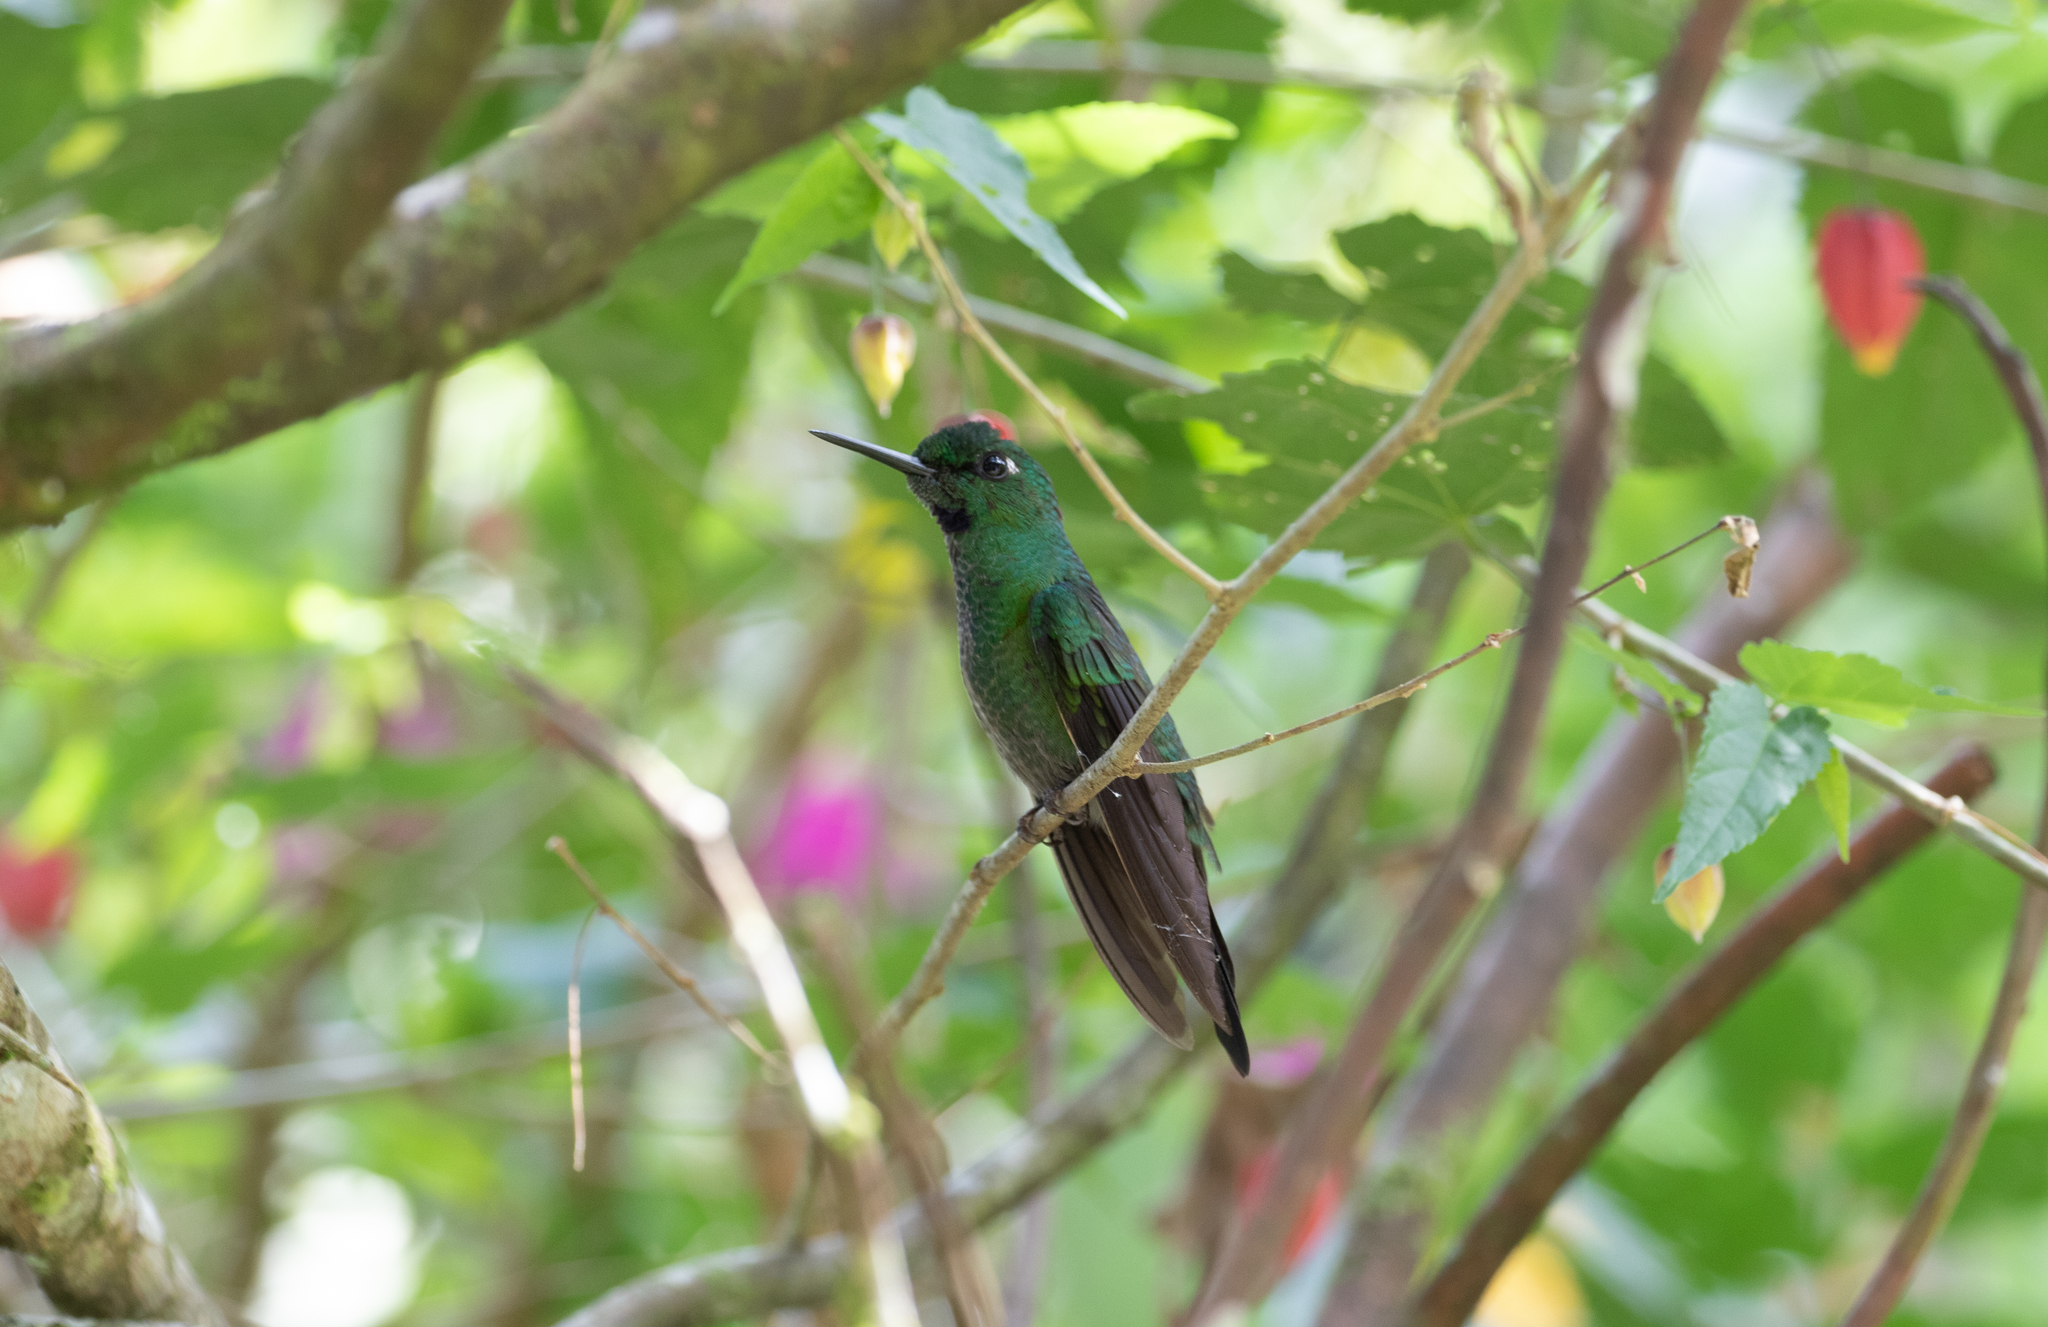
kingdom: Animalia
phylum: Chordata
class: Aves
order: Apodiformes
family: Trochilidae
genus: Heliodoxa
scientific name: Heliodoxa jacula
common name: Green-crowned brilliant
